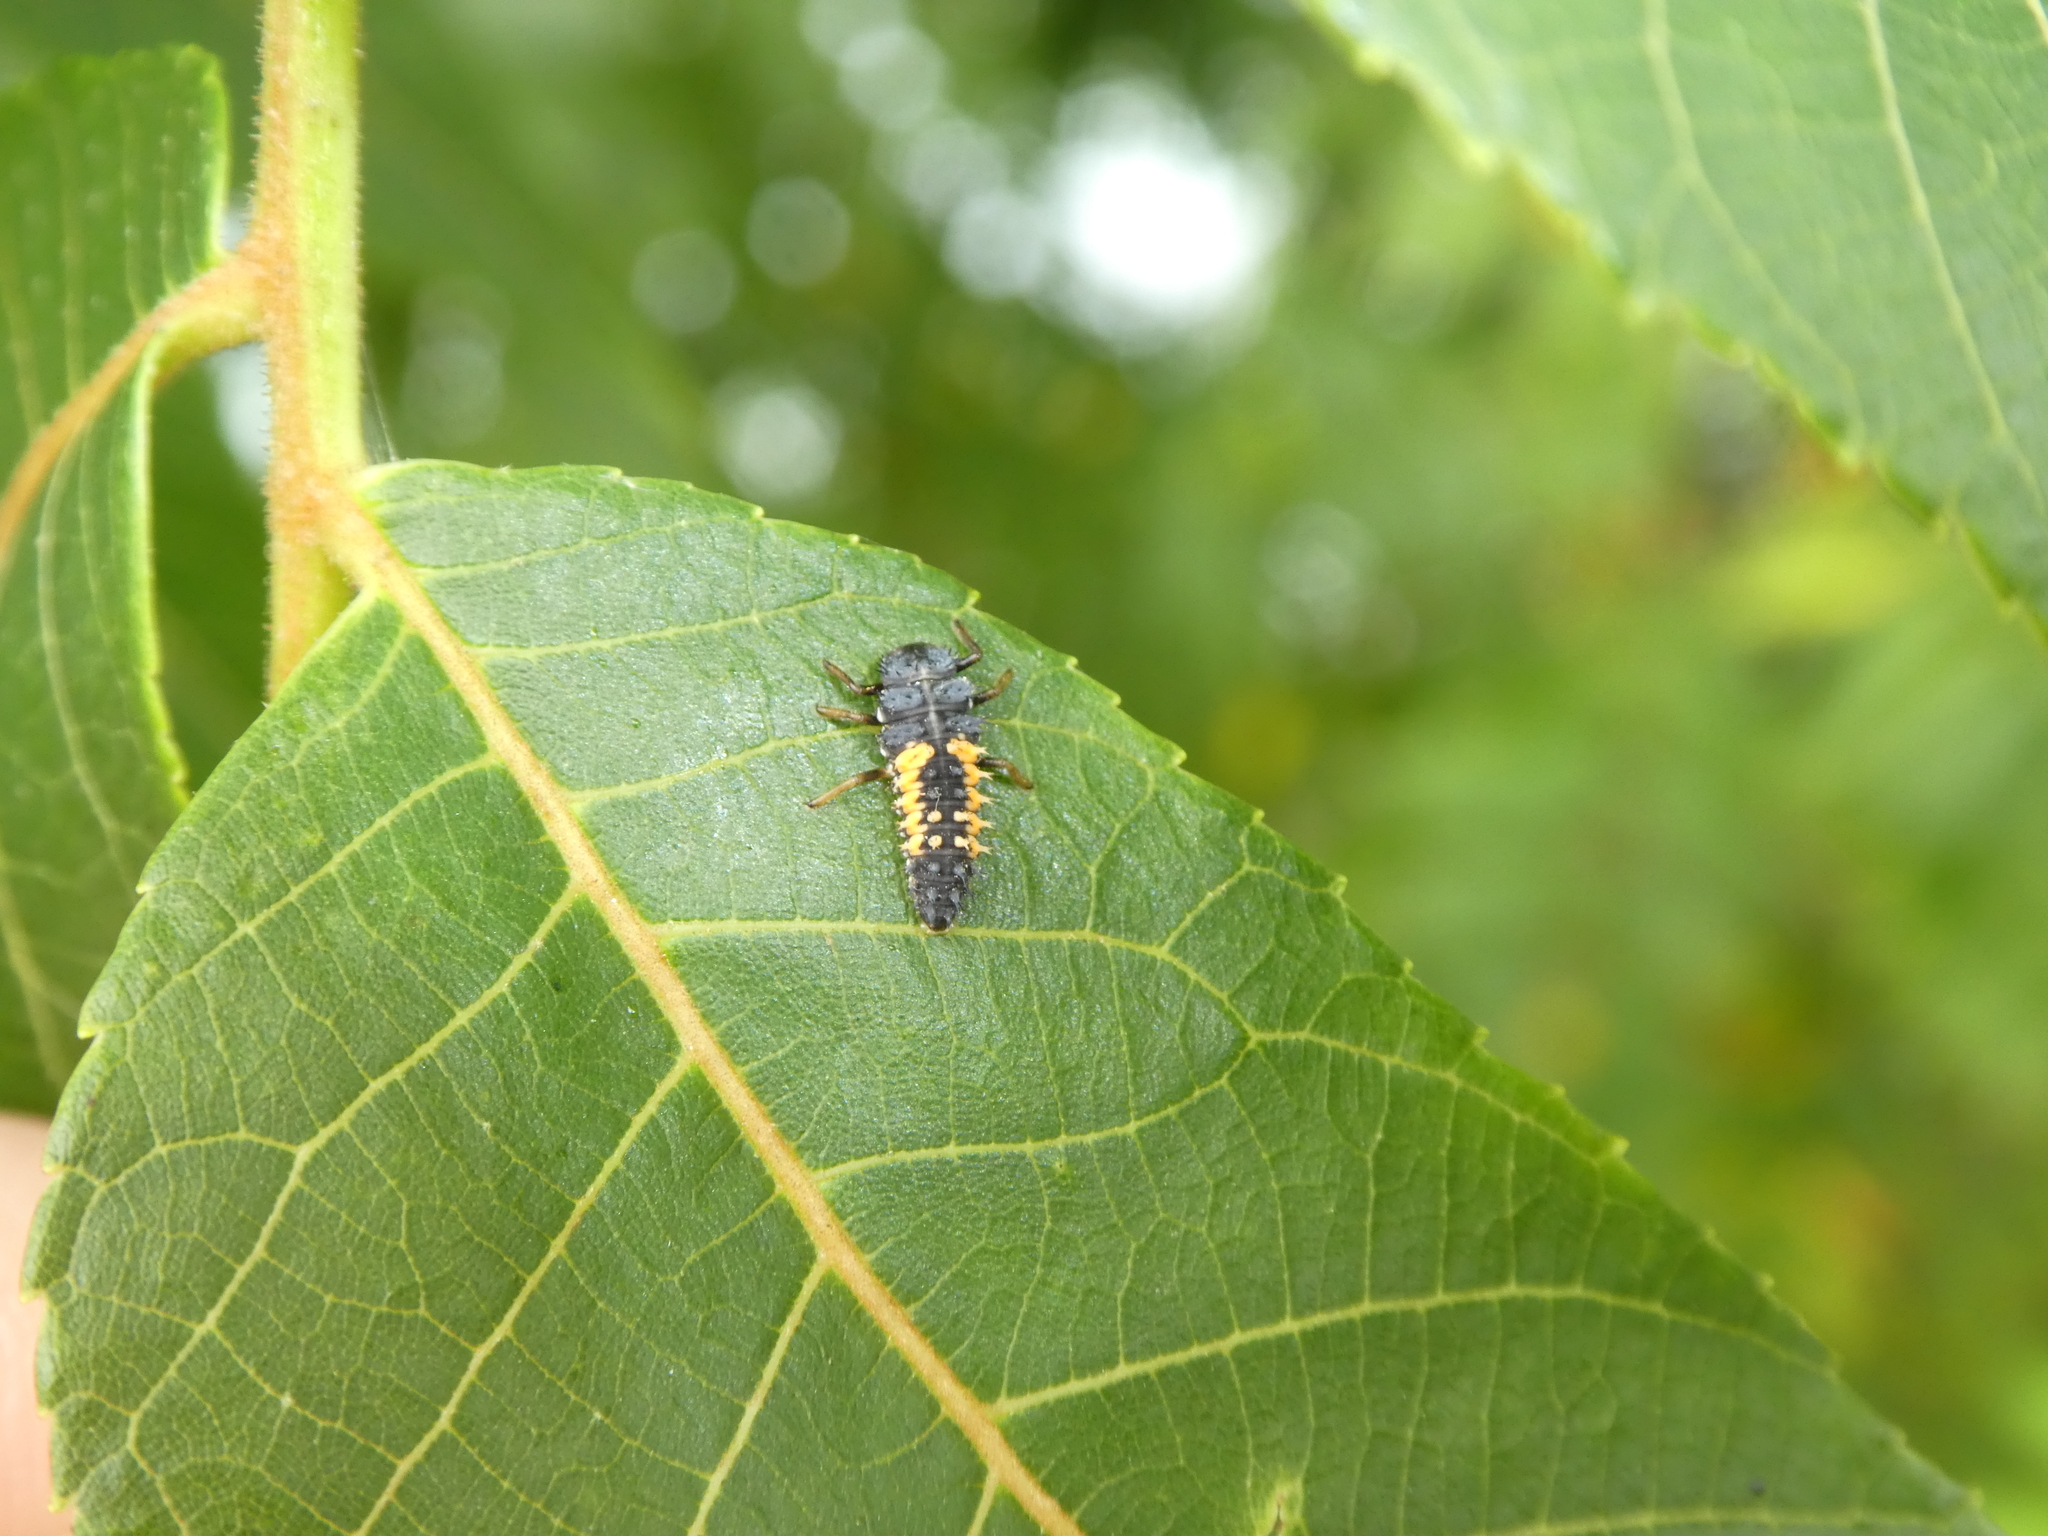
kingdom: Animalia
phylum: Arthropoda
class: Insecta
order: Coleoptera
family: Coccinellidae
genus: Harmonia
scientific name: Harmonia axyridis
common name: Harlequin ladybird
